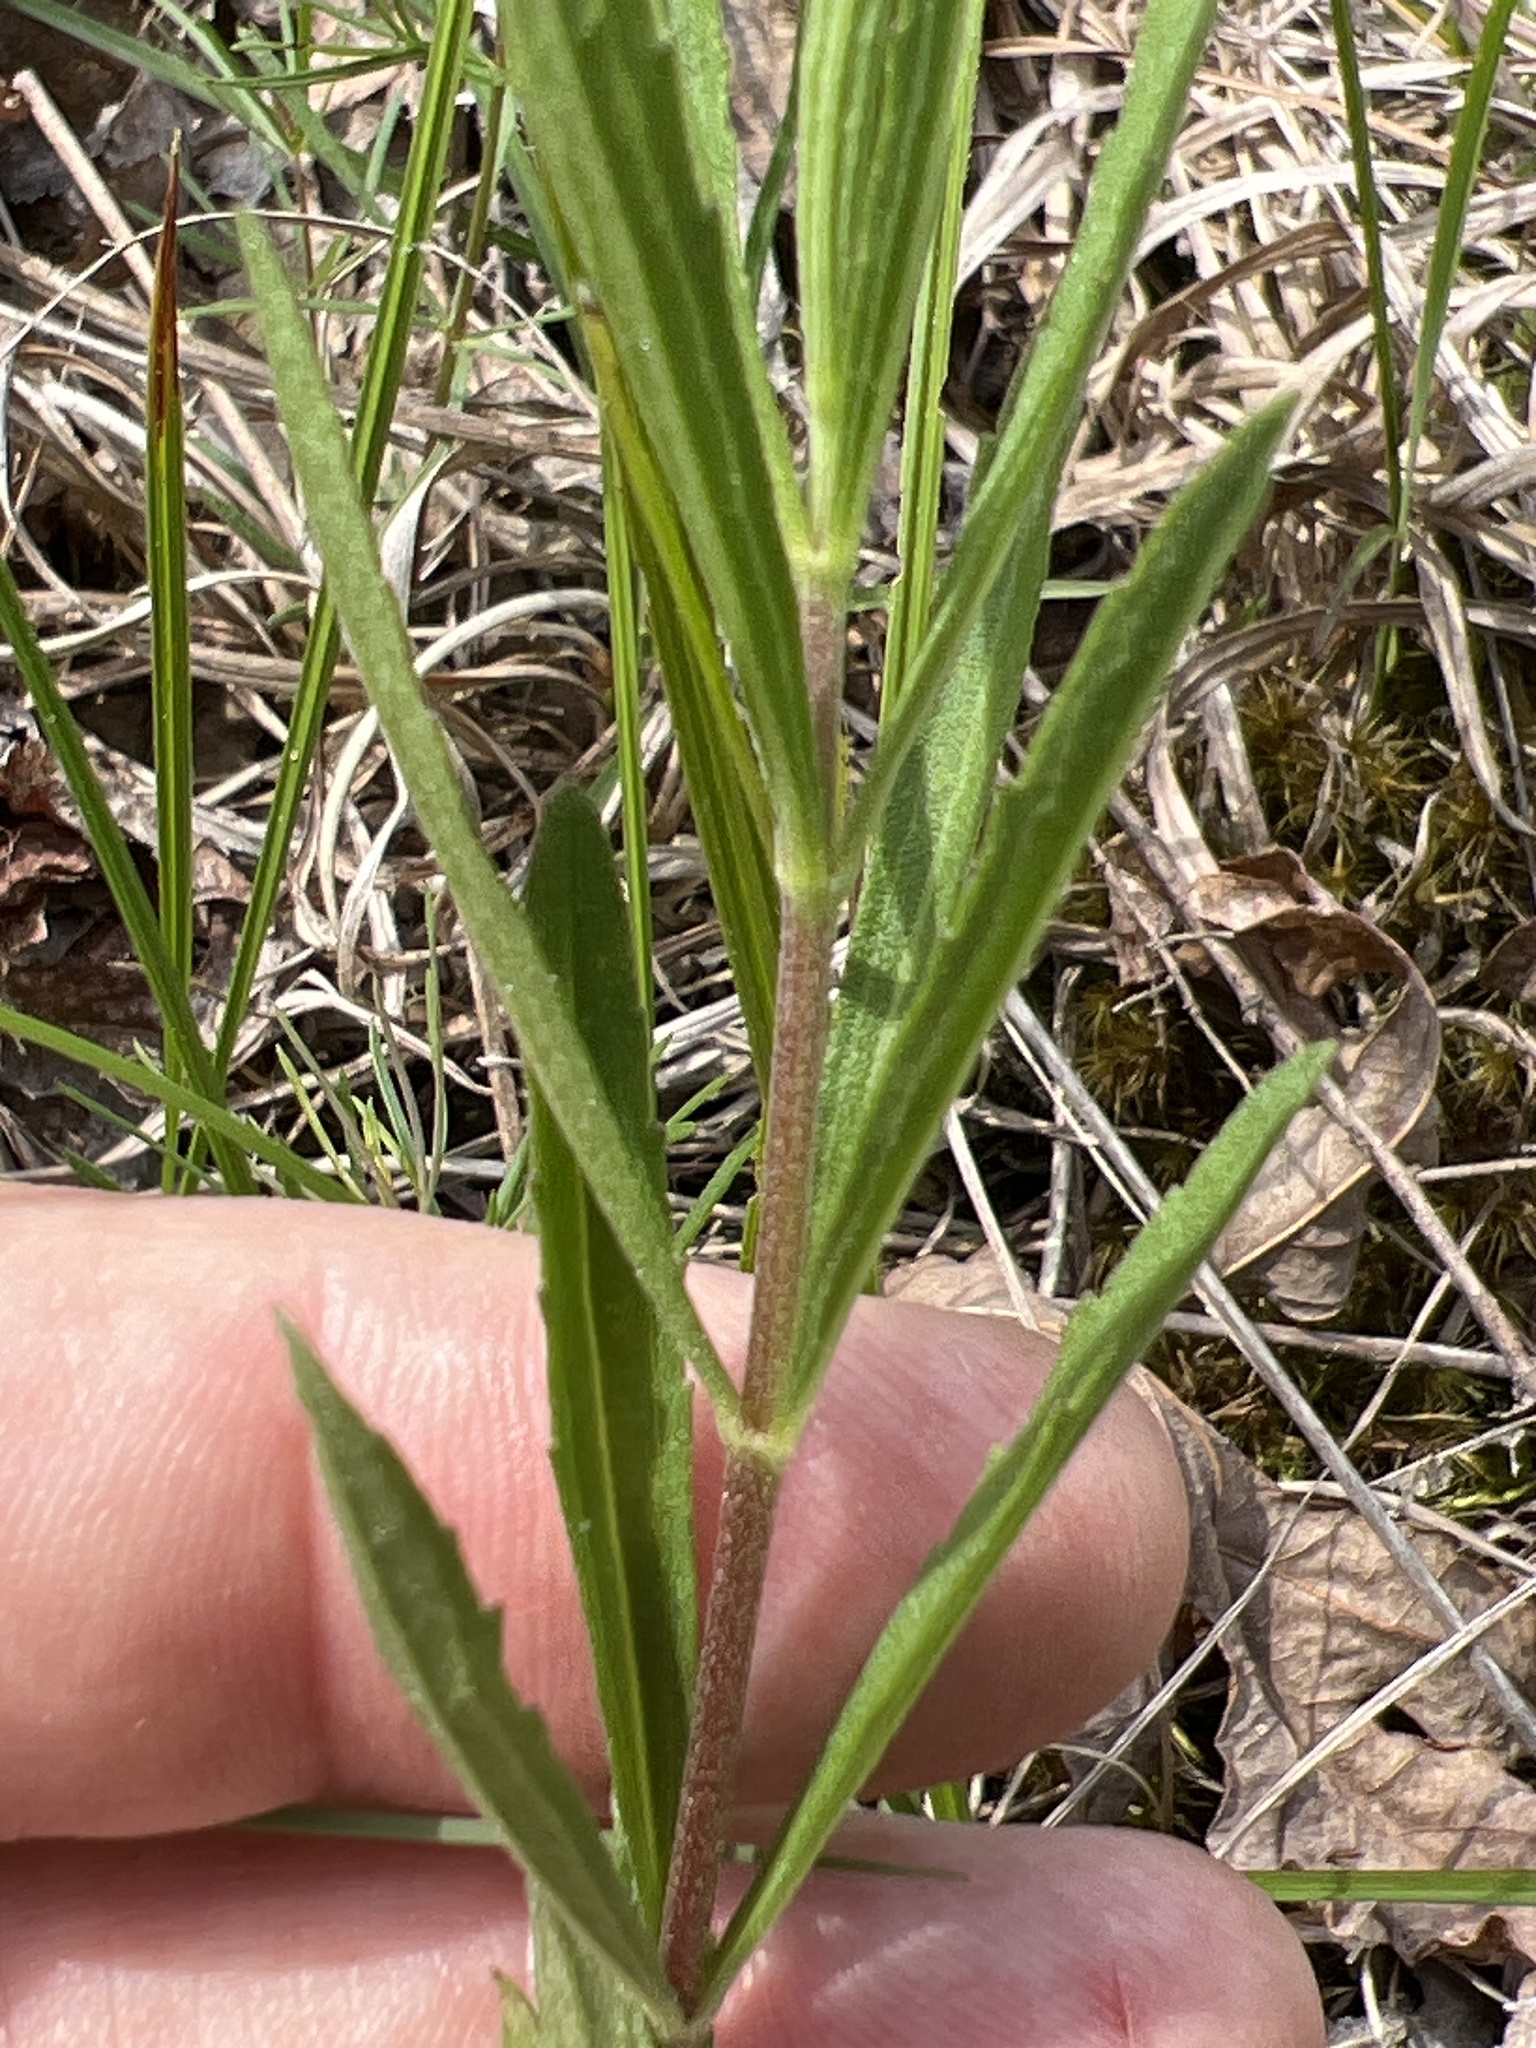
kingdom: Plantae
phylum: Tracheophyta
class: Magnoliopsida
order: Asterales
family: Asteraceae
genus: Eupatorium
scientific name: Eupatorium torreyanum
